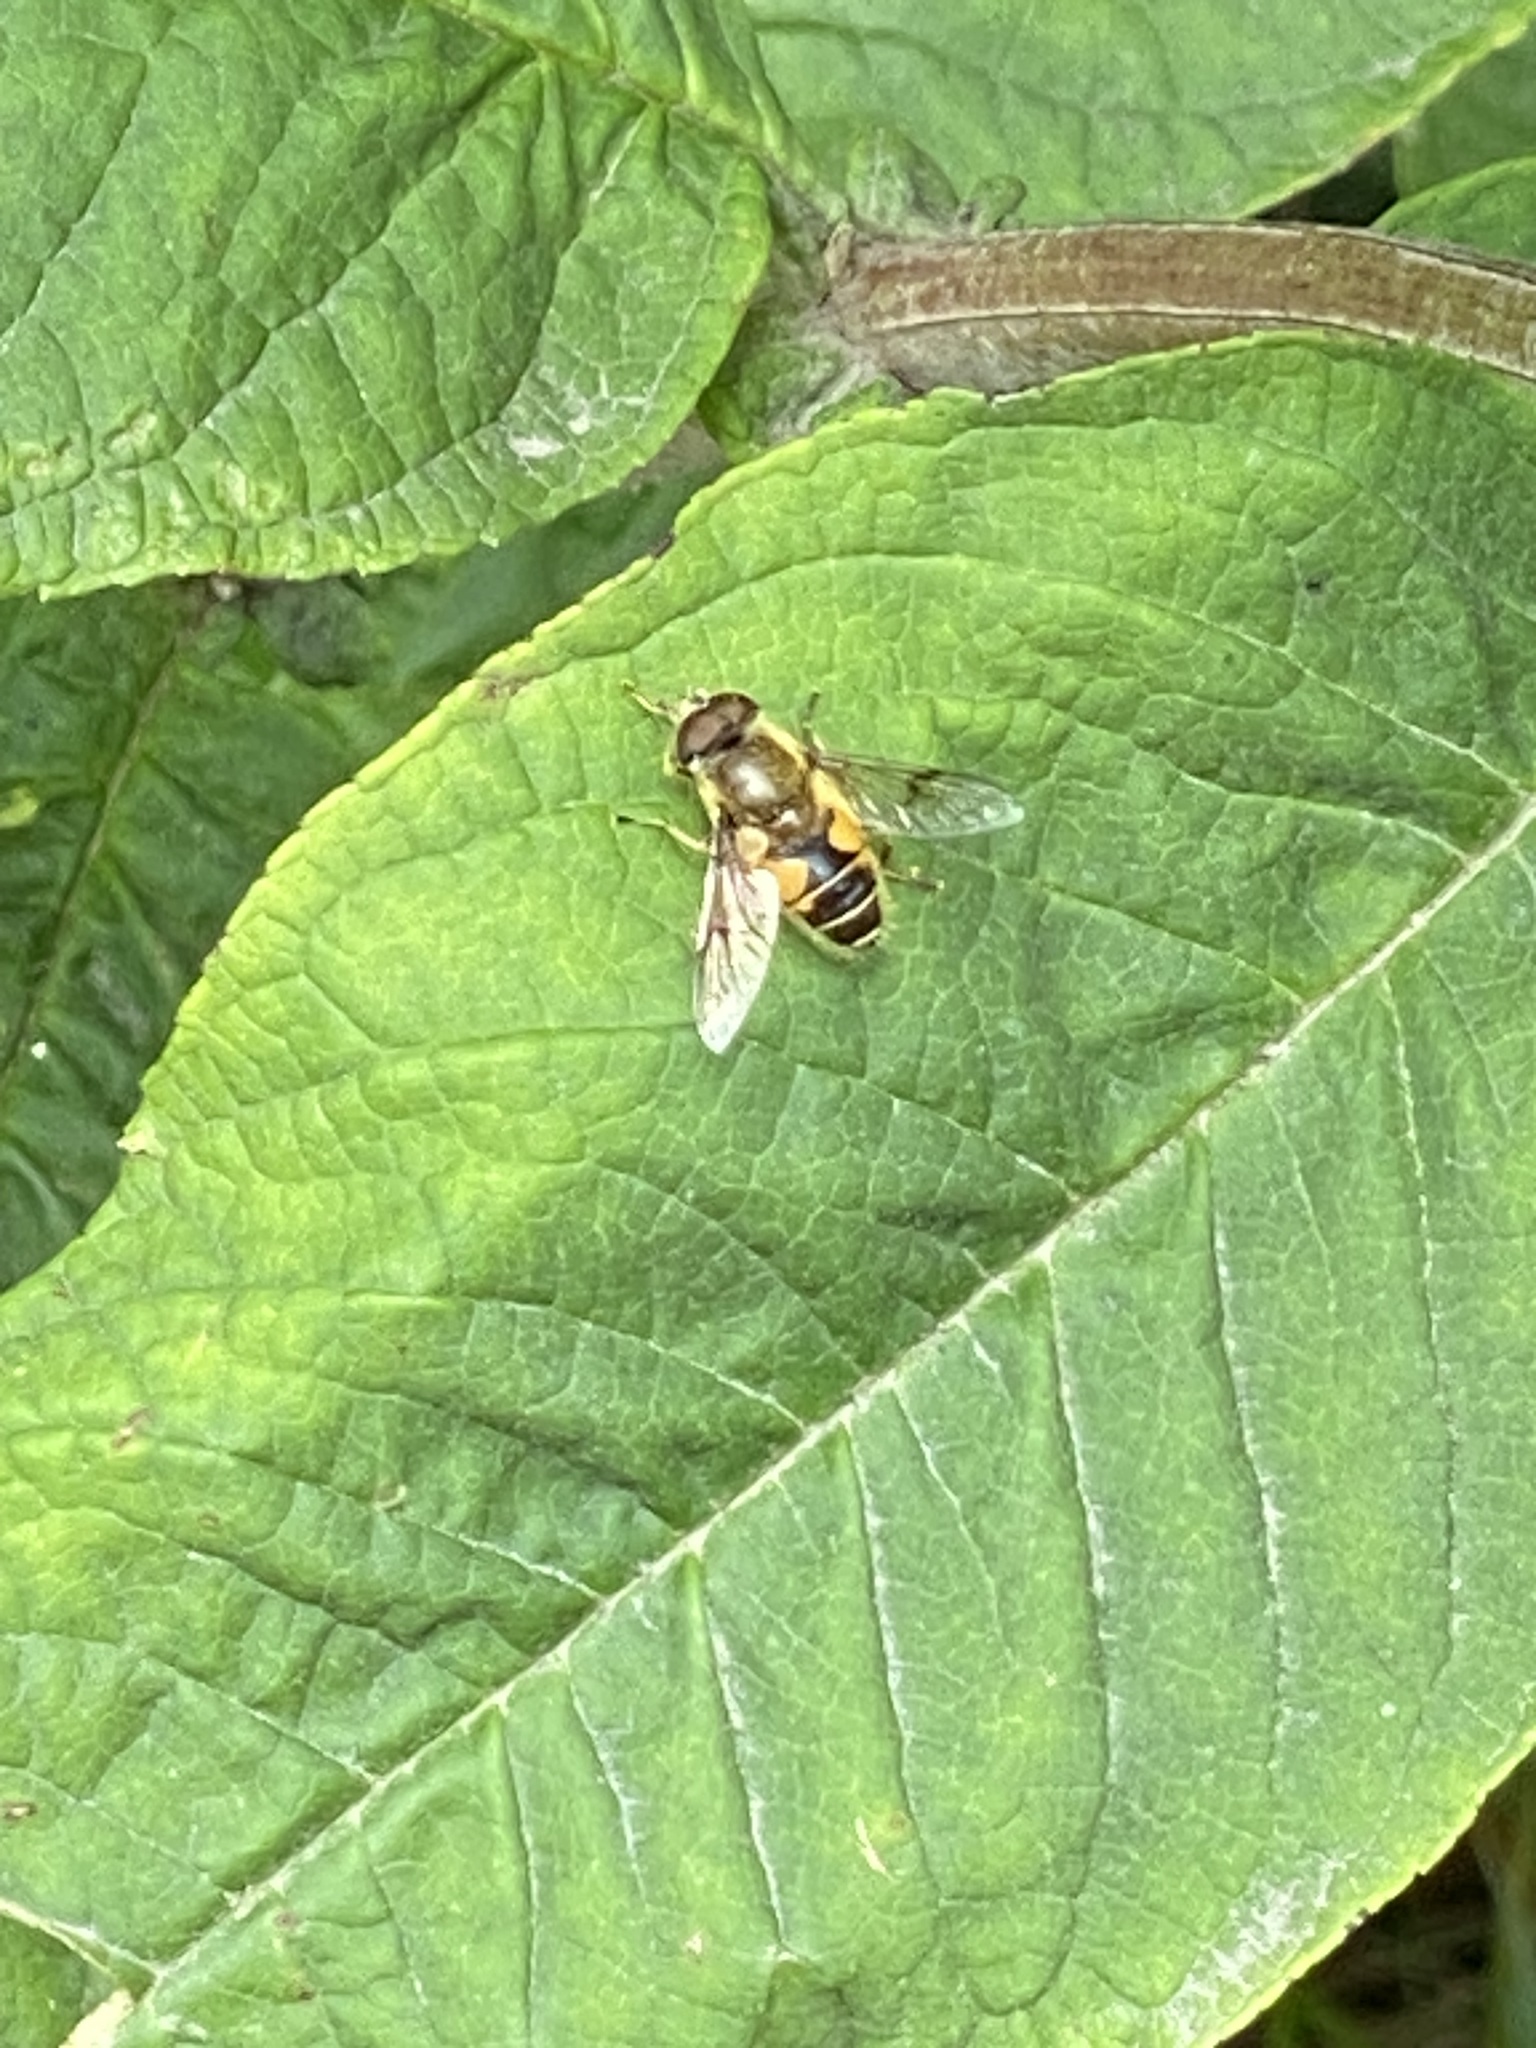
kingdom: Animalia
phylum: Arthropoda
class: Insecta
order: Diptera
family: Syrphidae
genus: Cheilosia
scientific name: Cheilosia morio
